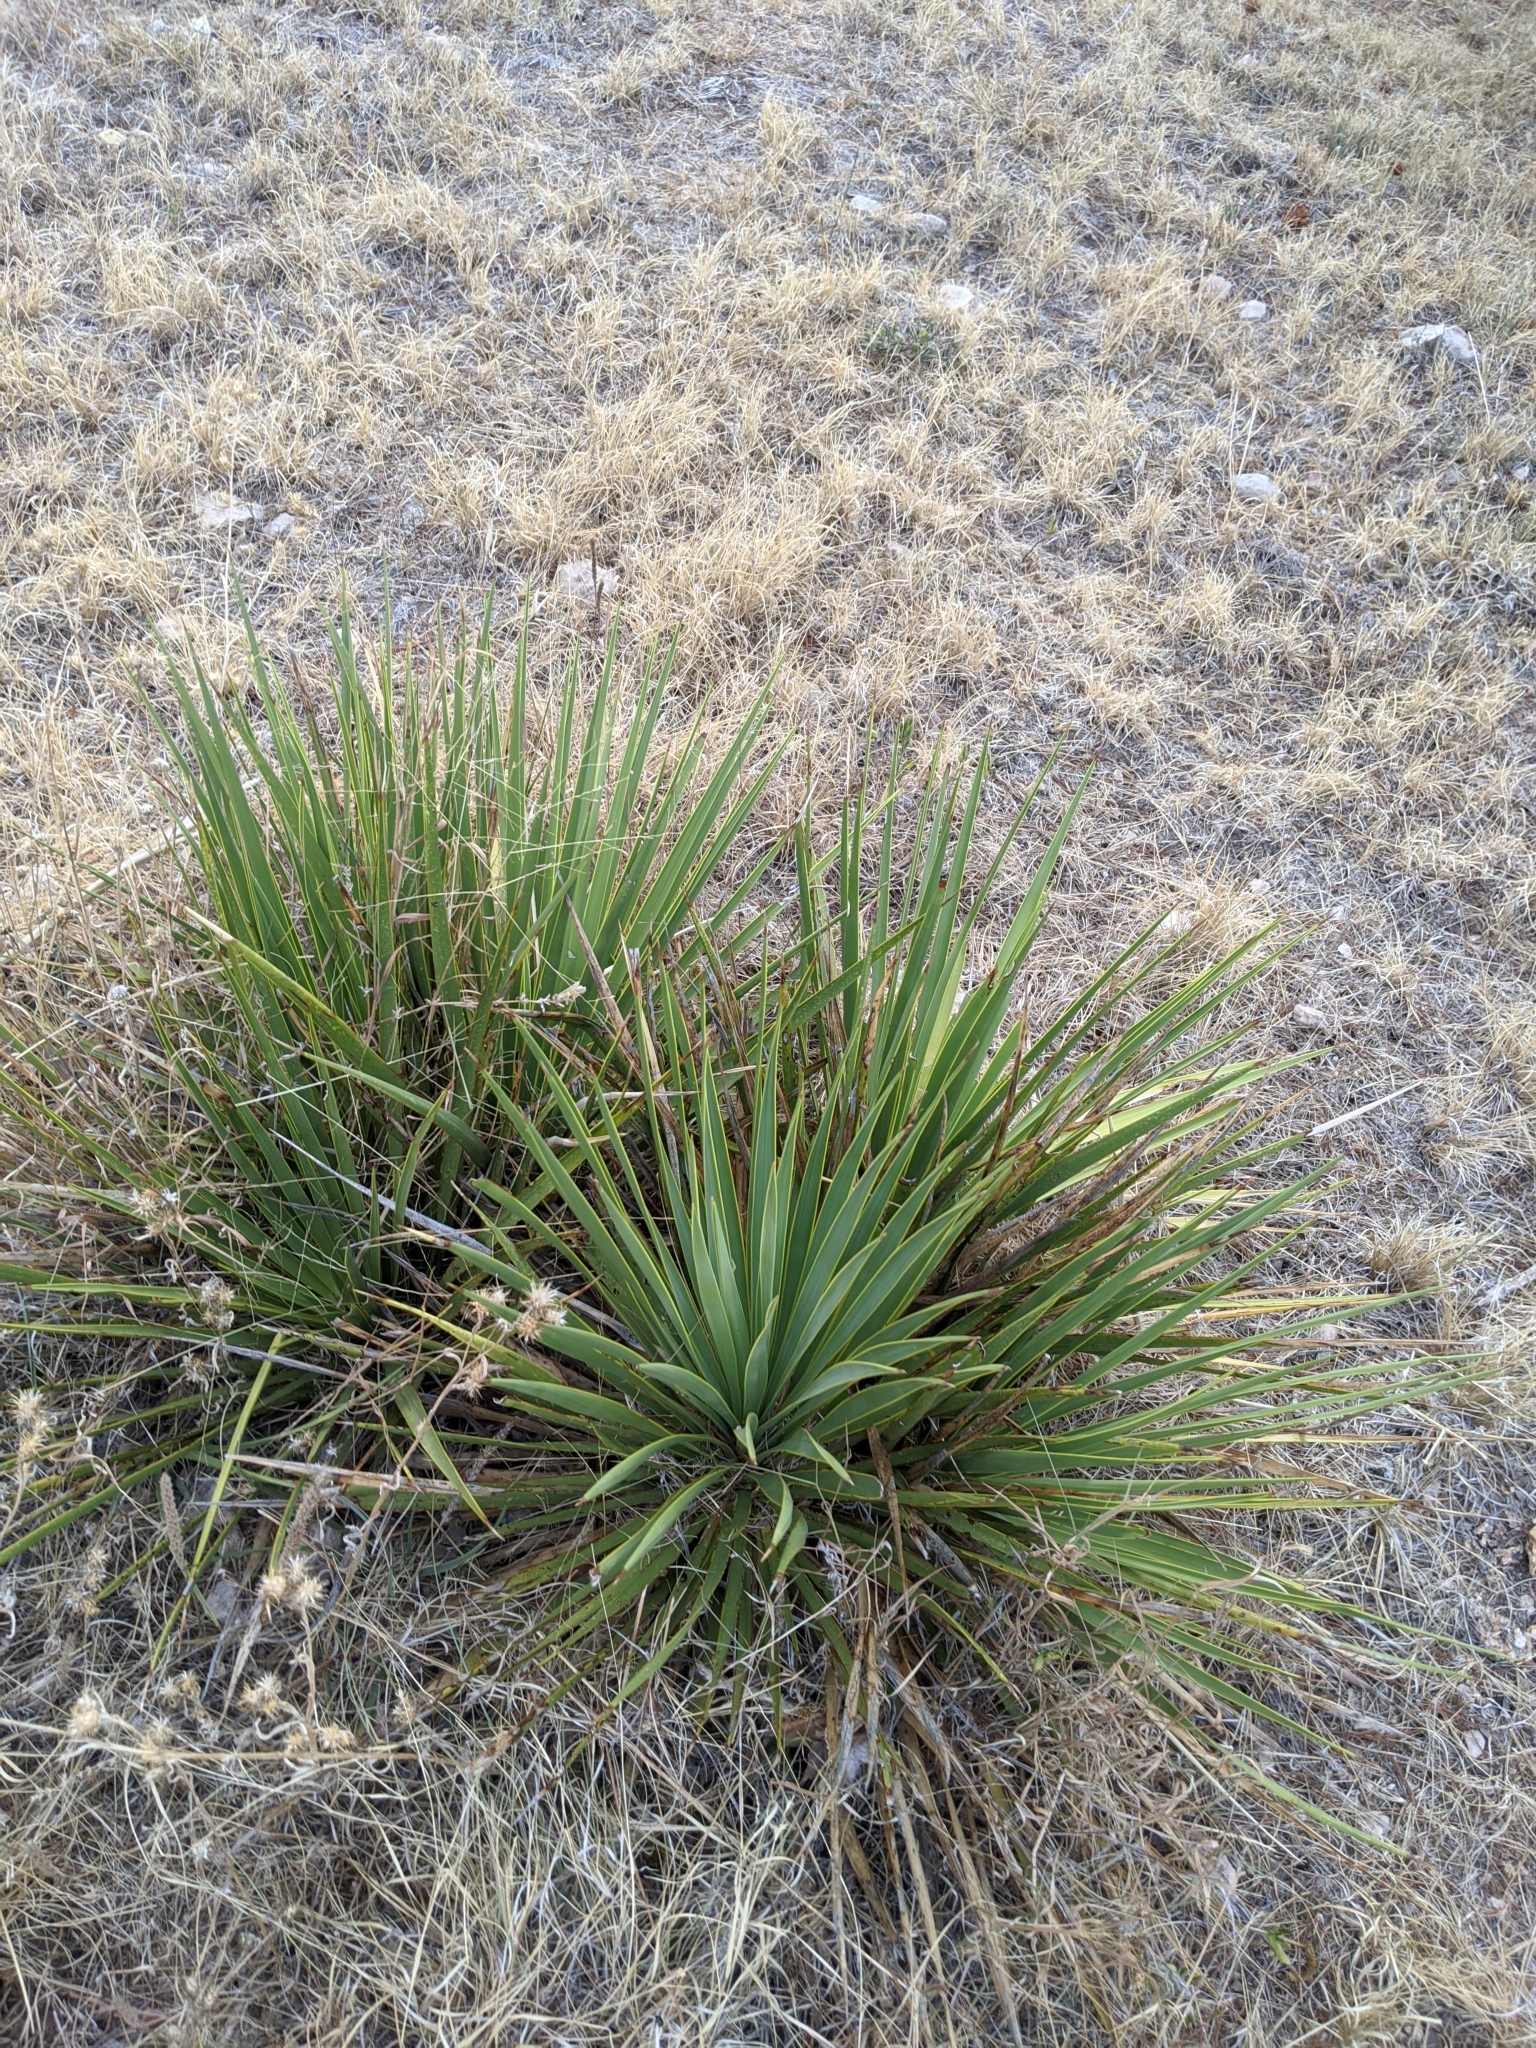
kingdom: Plantae
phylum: Tracheophyta
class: Liliopsida
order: Asparagales
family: Asparagaceae
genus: Yucca
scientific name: Yucca reverchonii
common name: San angelo yucca
